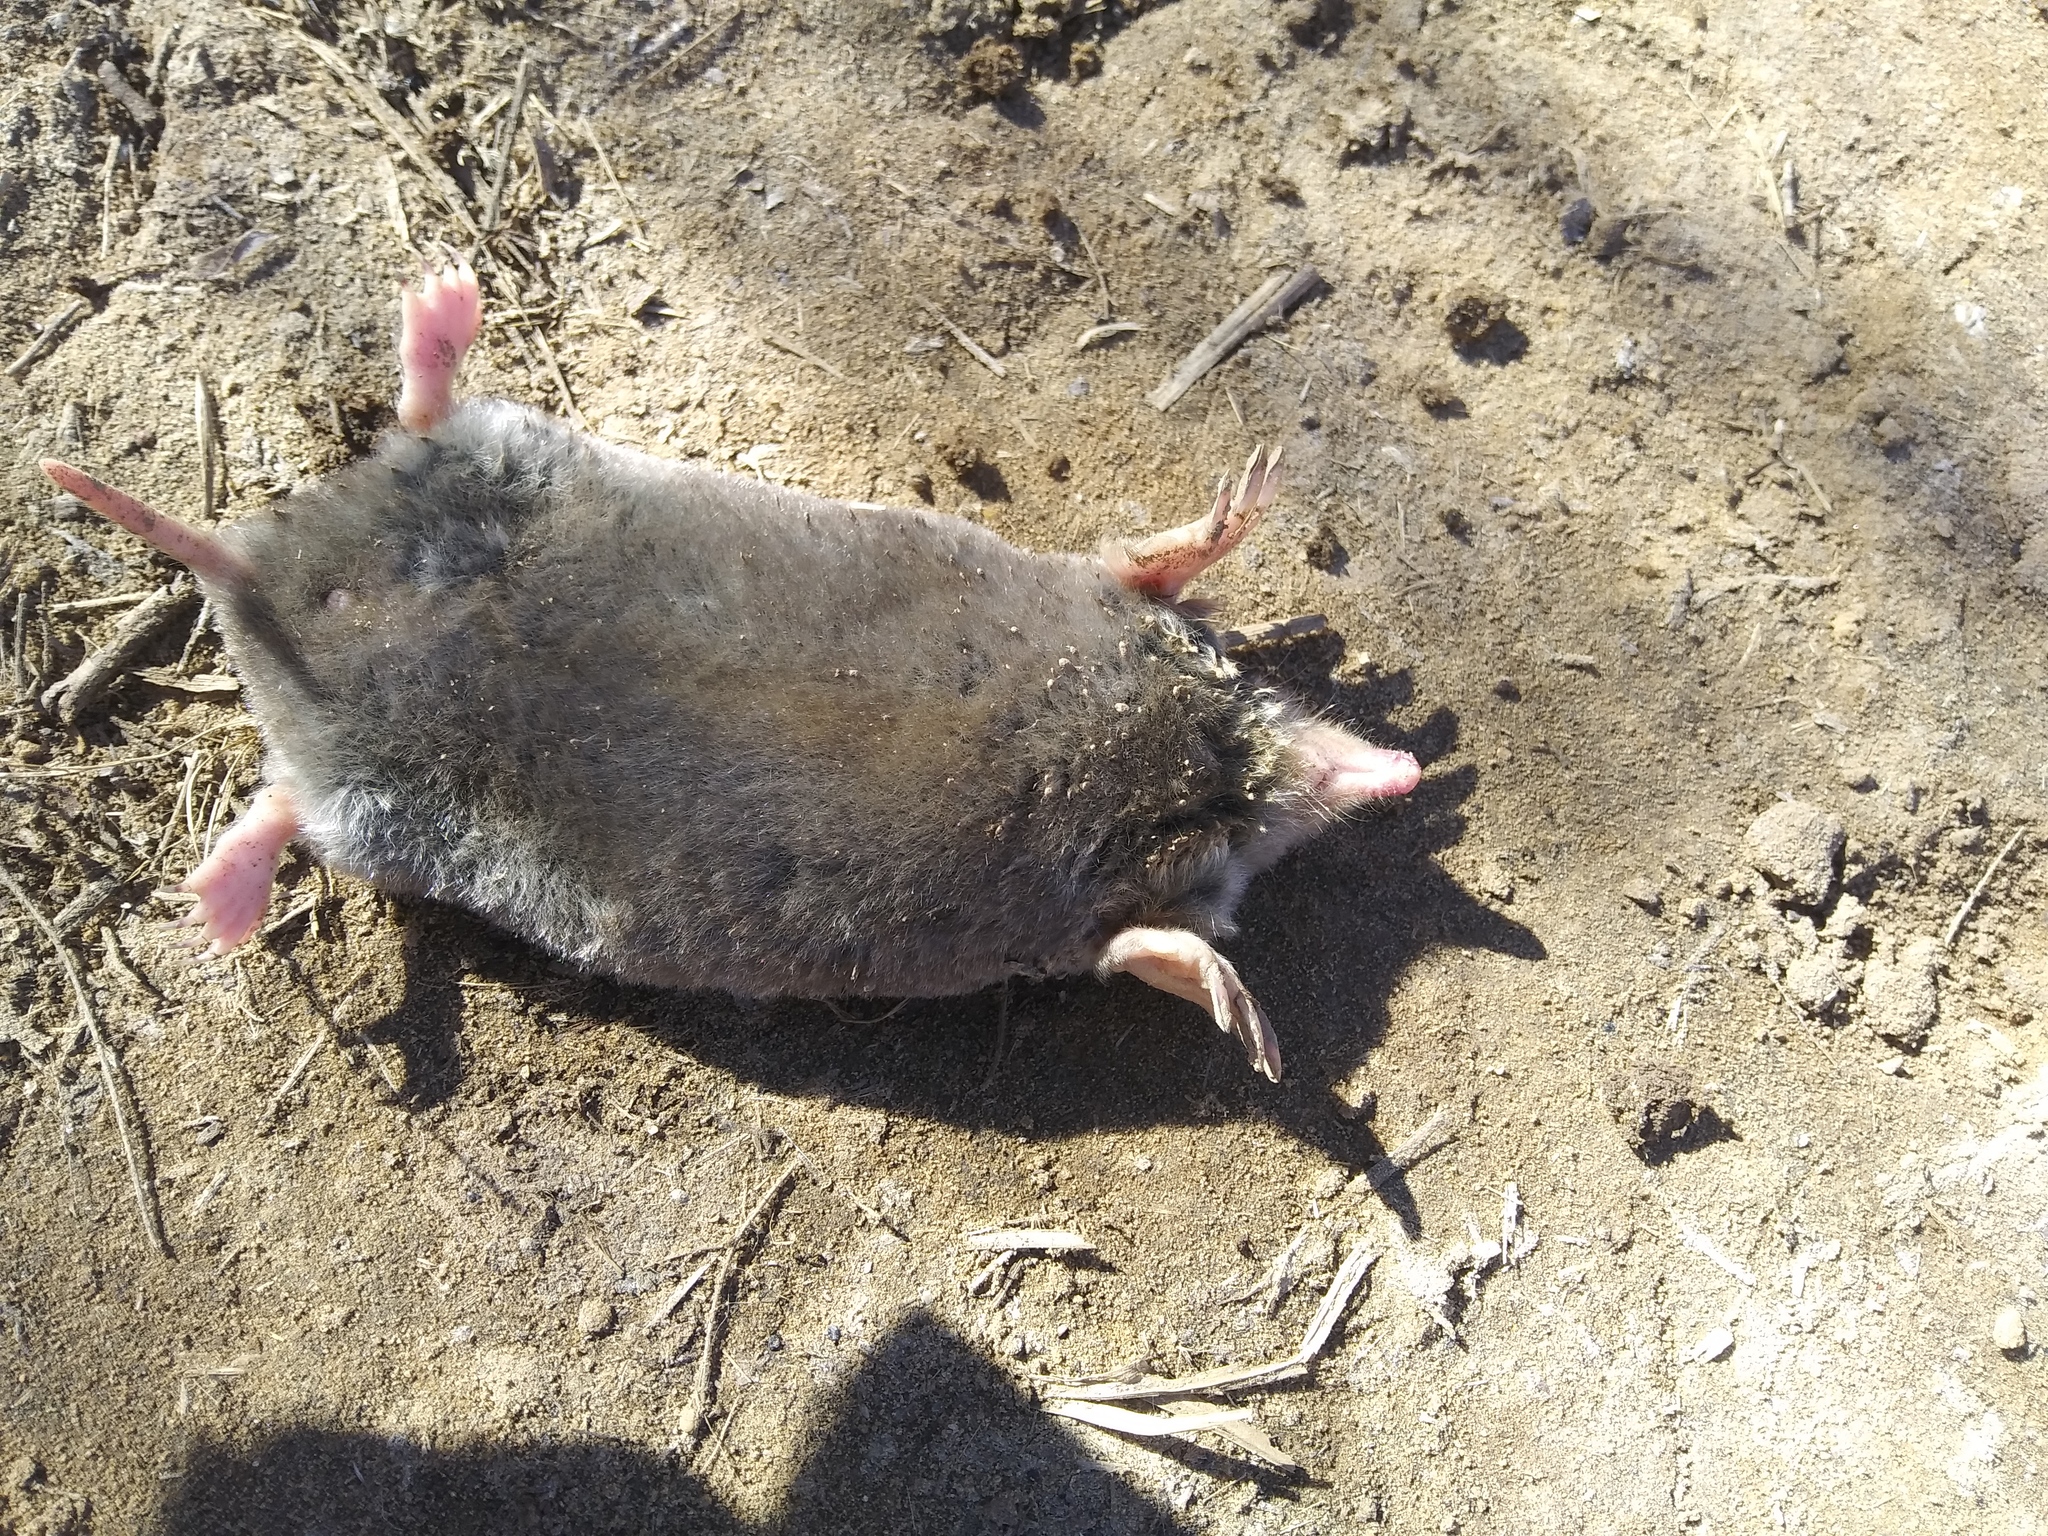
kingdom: Animalia
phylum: Chordata
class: Mammalia
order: Soricomorpha
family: Talpidae
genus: Scalopus
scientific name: Scalopus aquaticus
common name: Eastern mole
